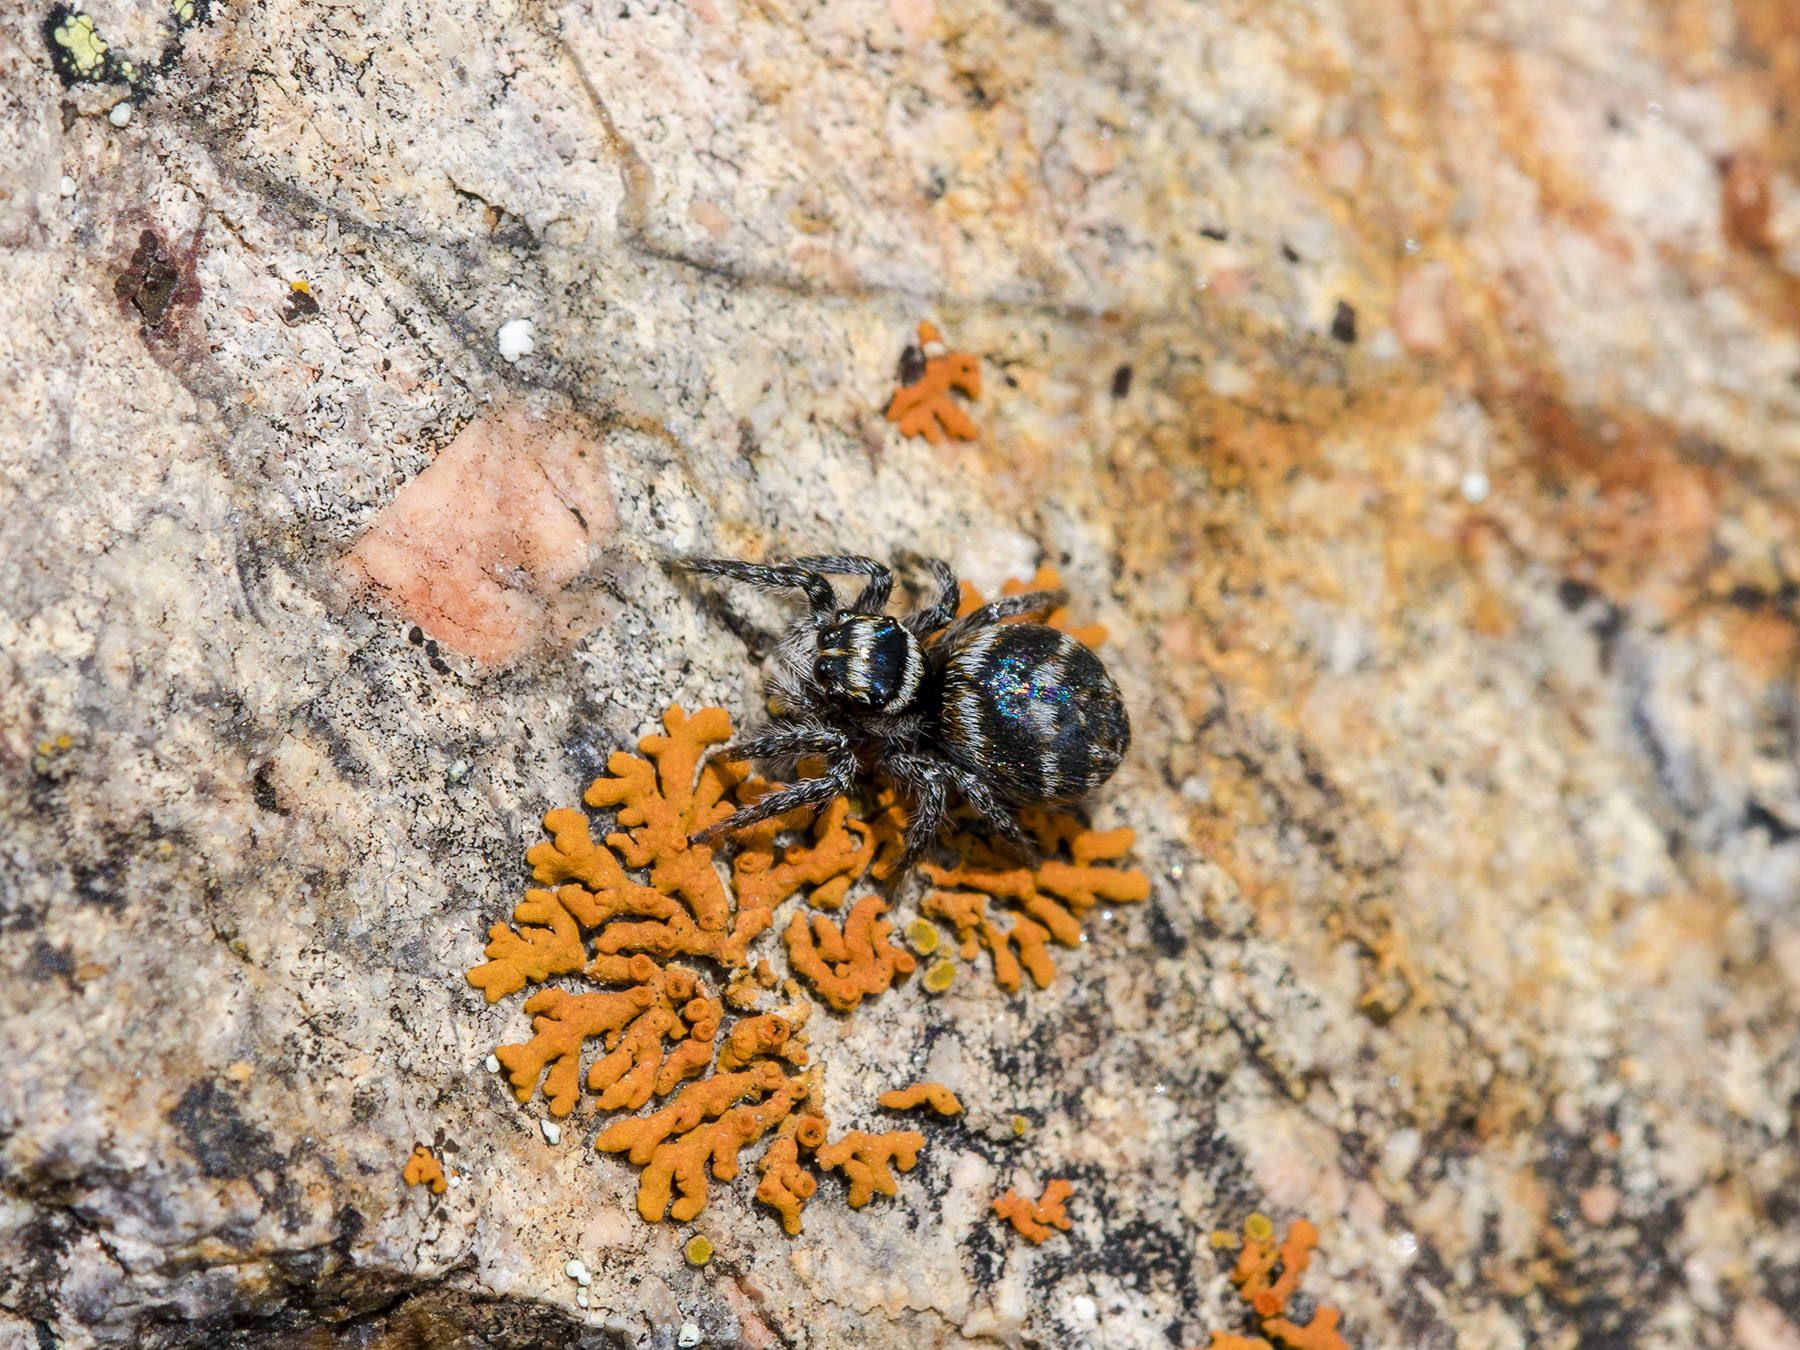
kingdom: Animalia
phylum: Arthropoda
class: Arachnida
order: Araneae
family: Salticidae
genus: Philaeus
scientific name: Philaeus chrysops
